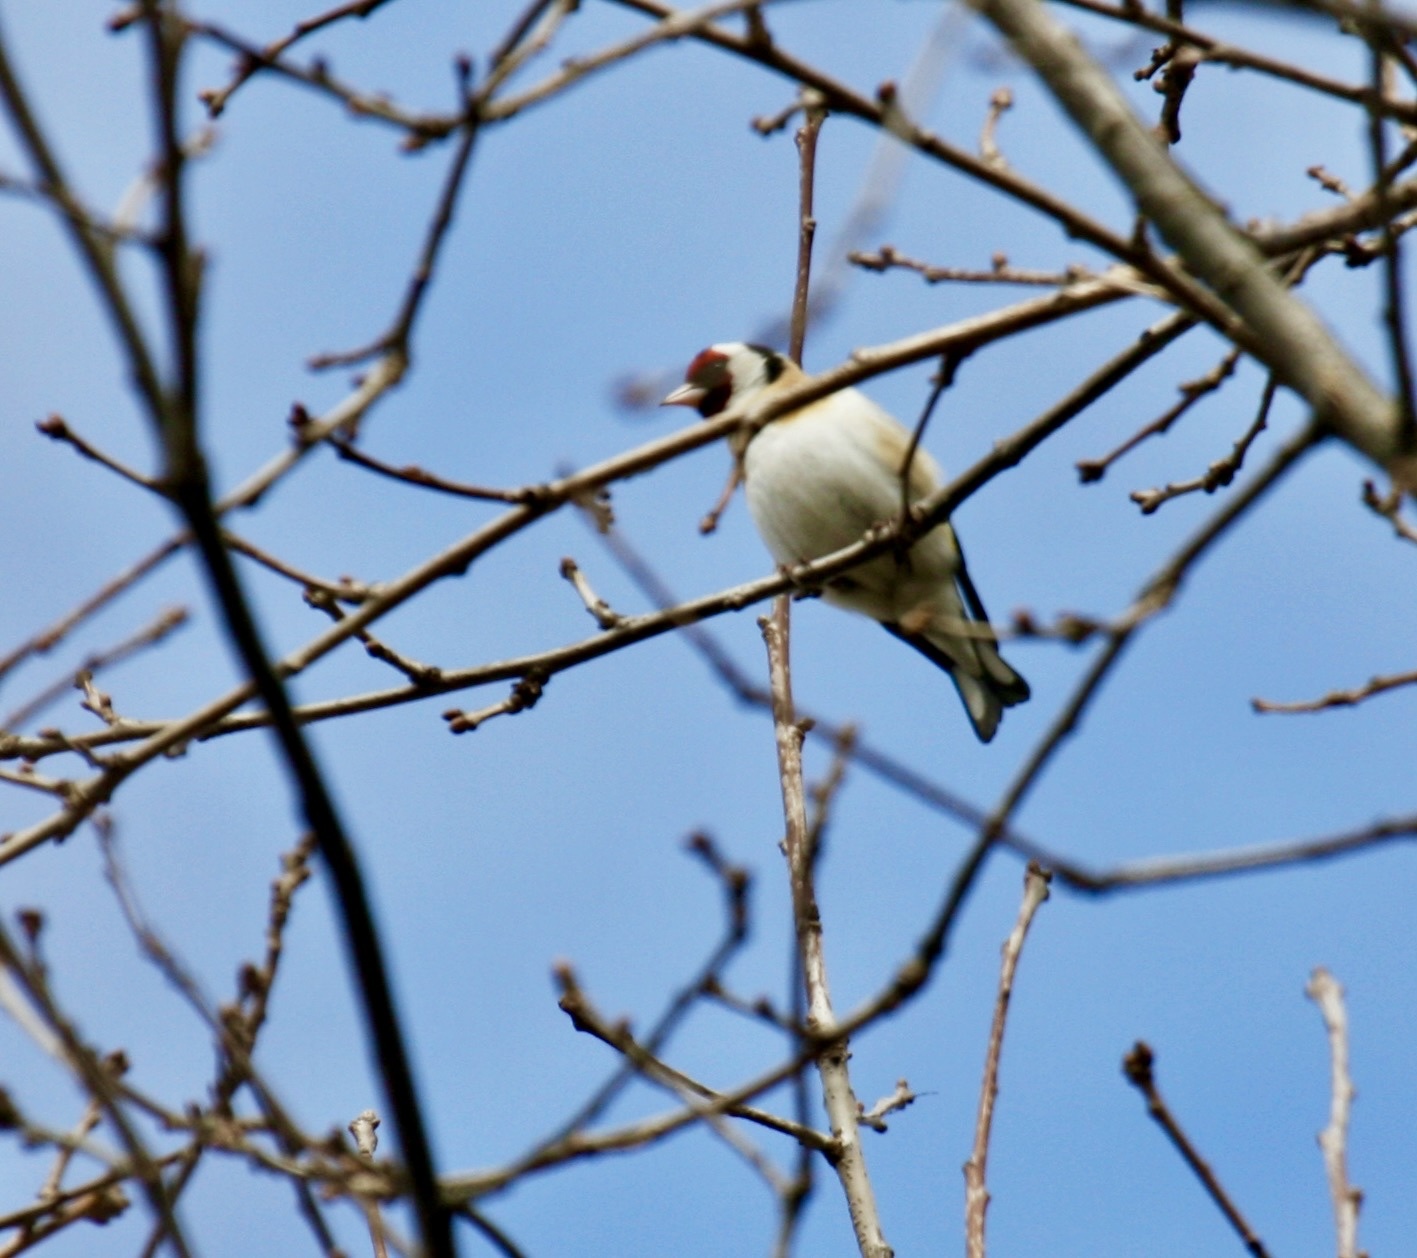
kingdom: Animalia
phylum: Chordata
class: Aves
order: Passeriformes
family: Fringillidae
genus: Carduelis
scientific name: Carduelis carduelis
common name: European goldfinch
